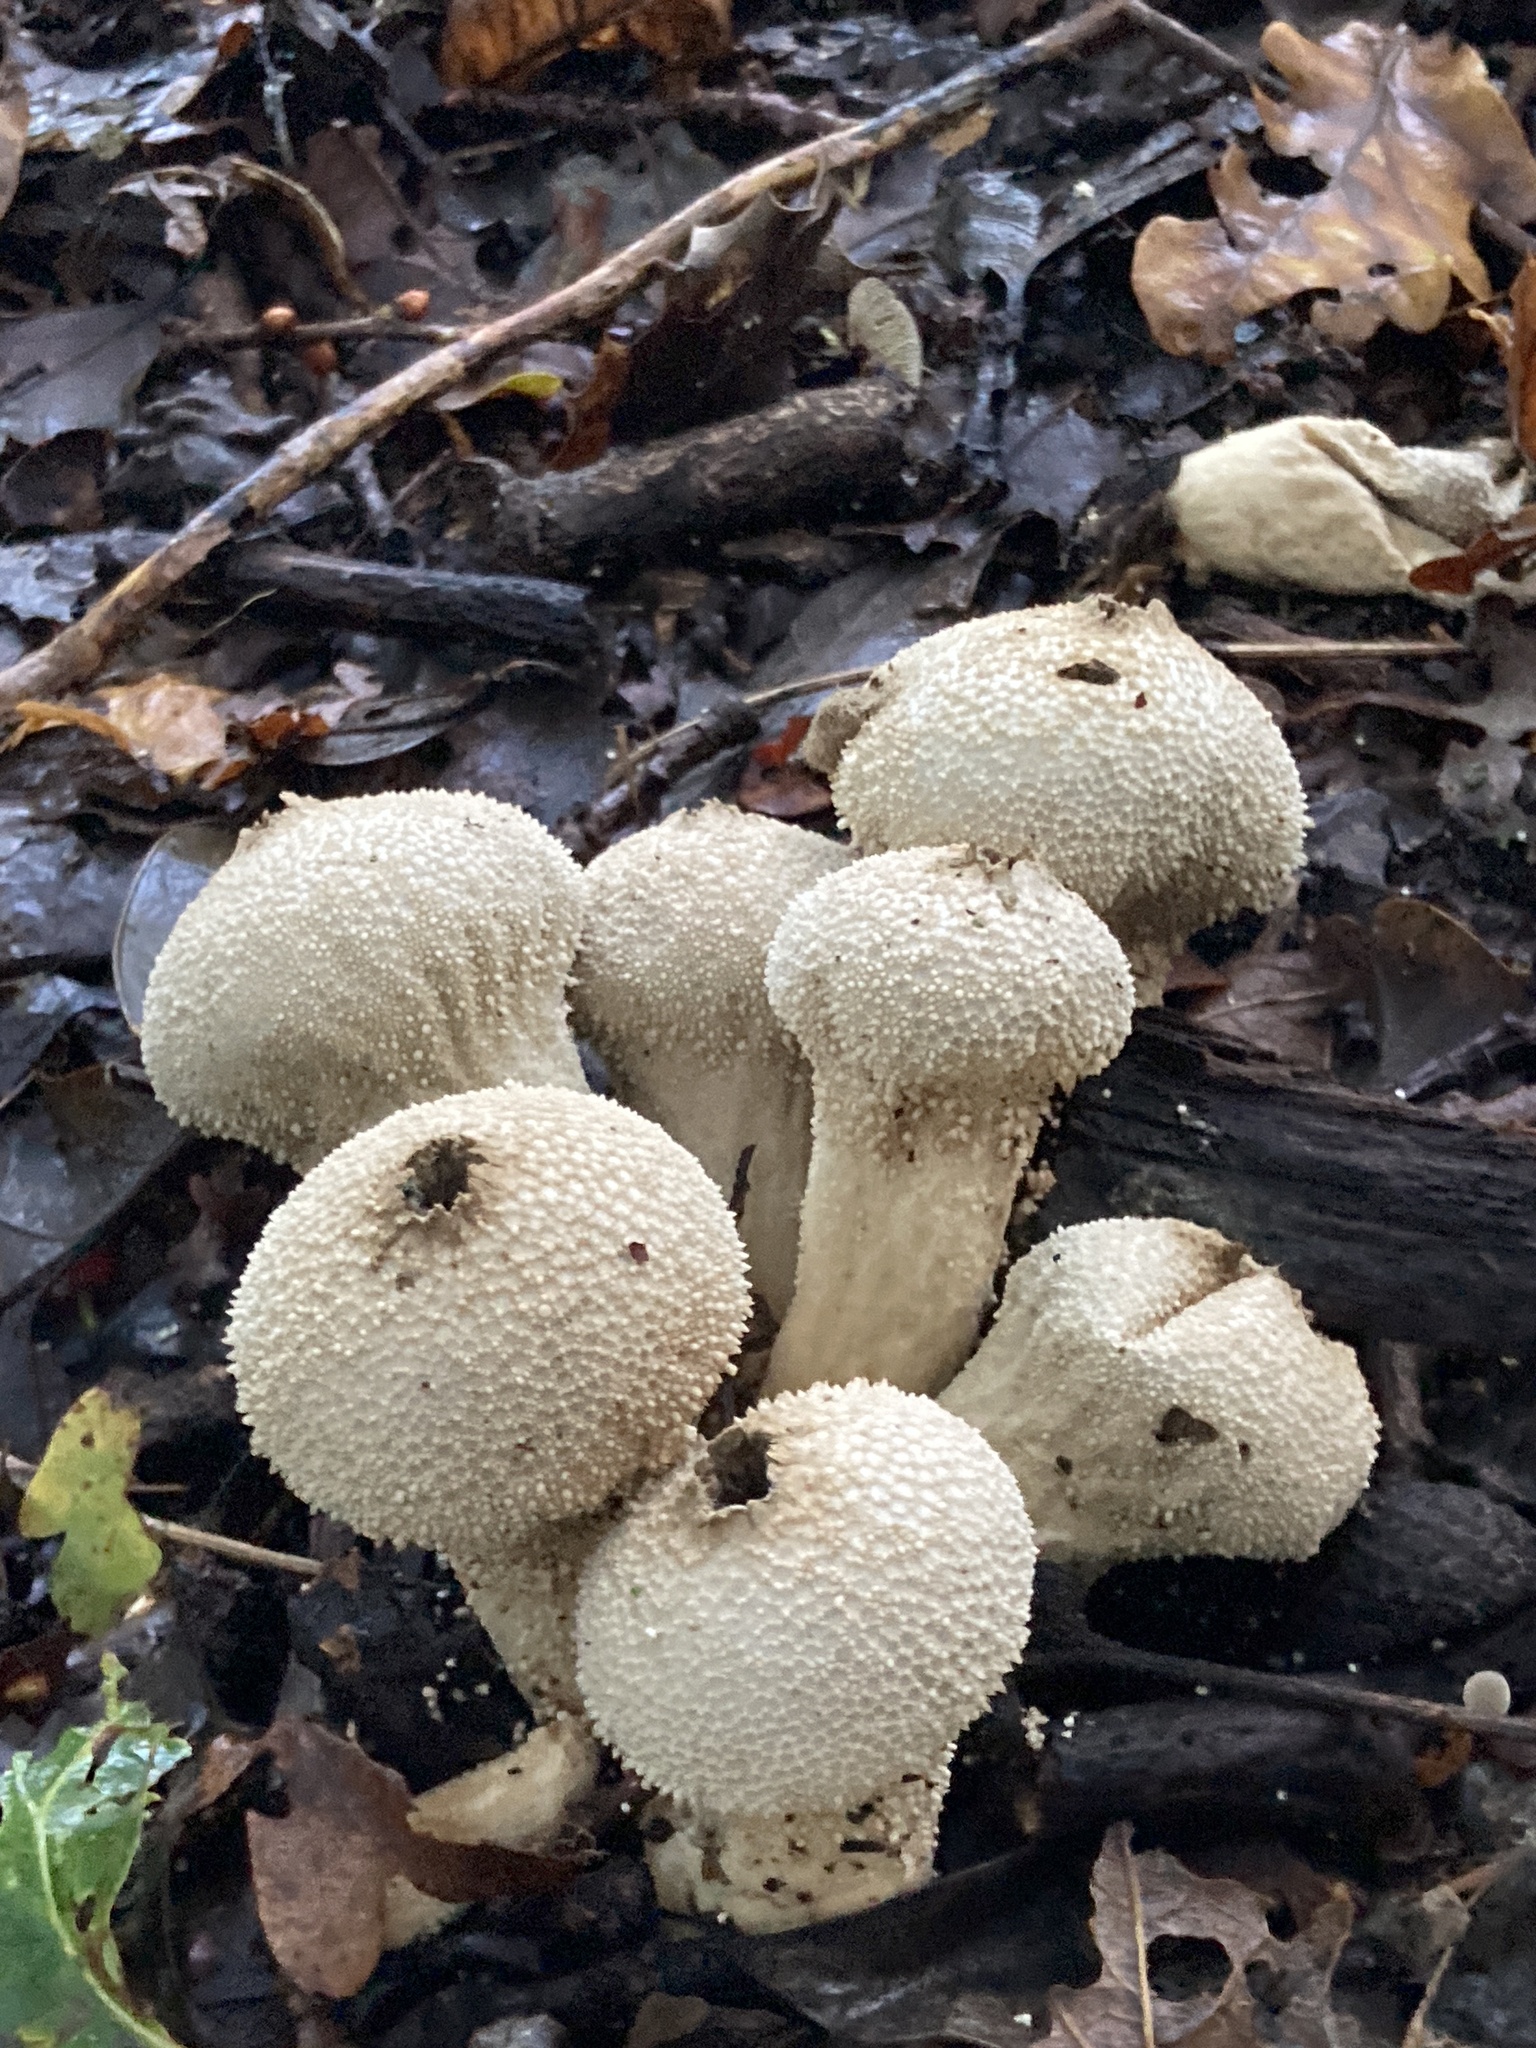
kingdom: Fungi
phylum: Basidiomycota
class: Agaricomycetes
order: Agaricales
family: Lycoperdaceae
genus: Lycoperdon
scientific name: Lycoperdon perlatum
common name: Common puffball
